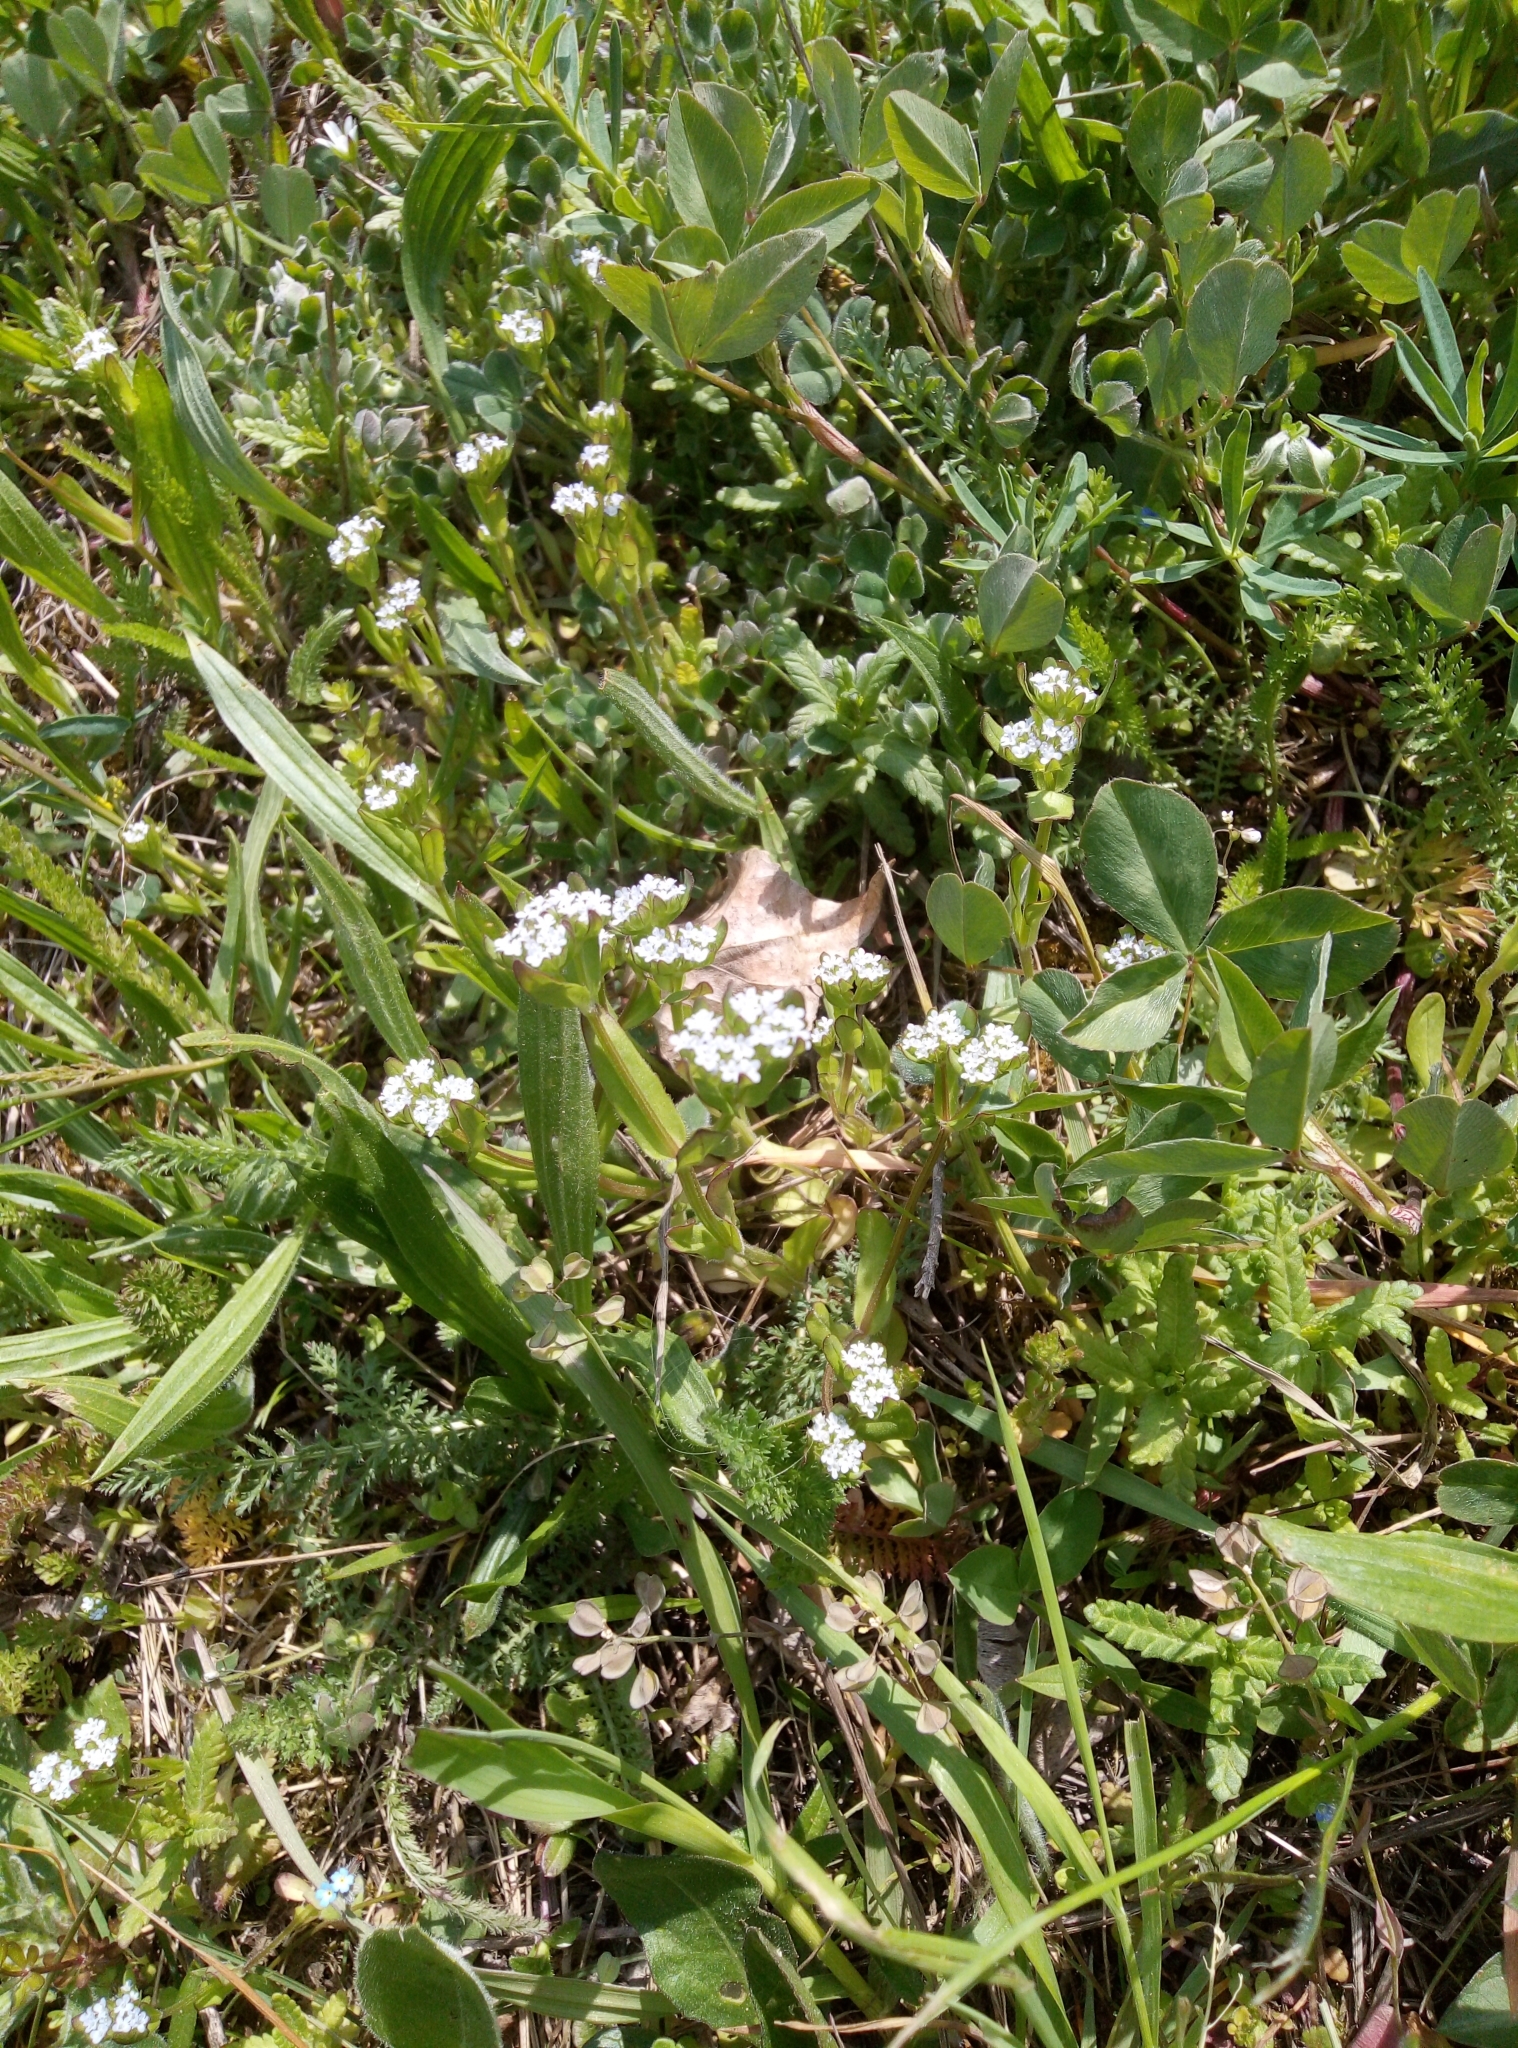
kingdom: Plantae
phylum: Tracheophyta
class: Magnoliopsida
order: Dipsacales
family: Caprifoliaceae
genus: Valerianella
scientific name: Valerianella
